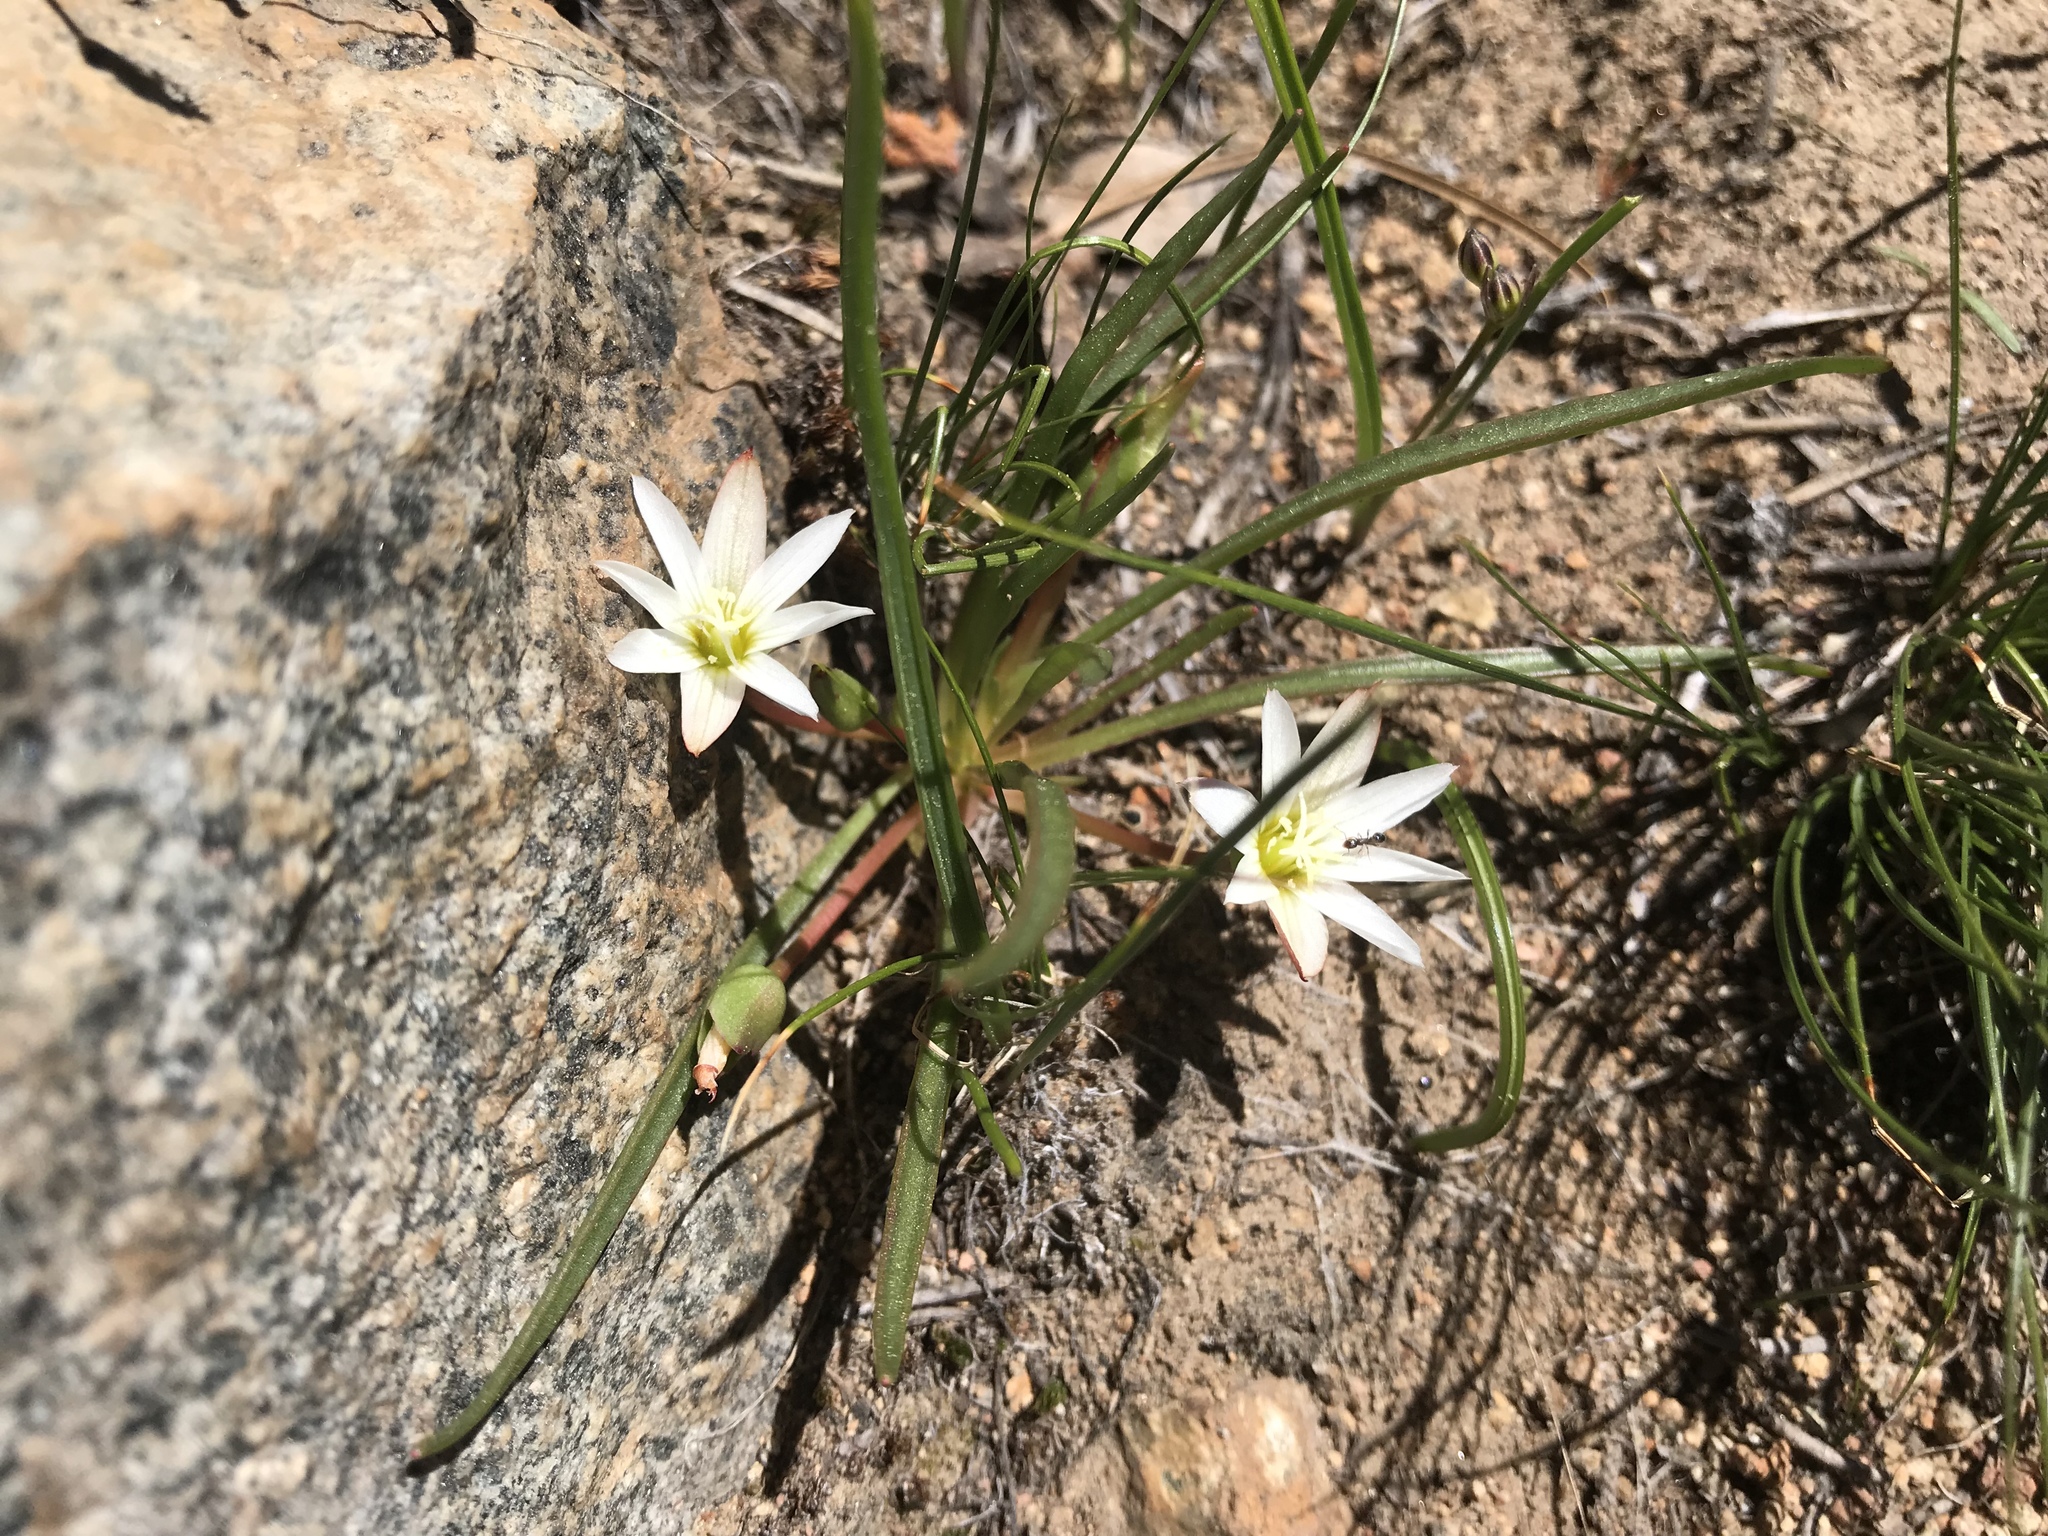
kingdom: Plantae
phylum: Tracheophyta
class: Magnoliopsida
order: Caryophyllales
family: Montiaceae
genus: Lewisia
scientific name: Lewisia nevadensis
